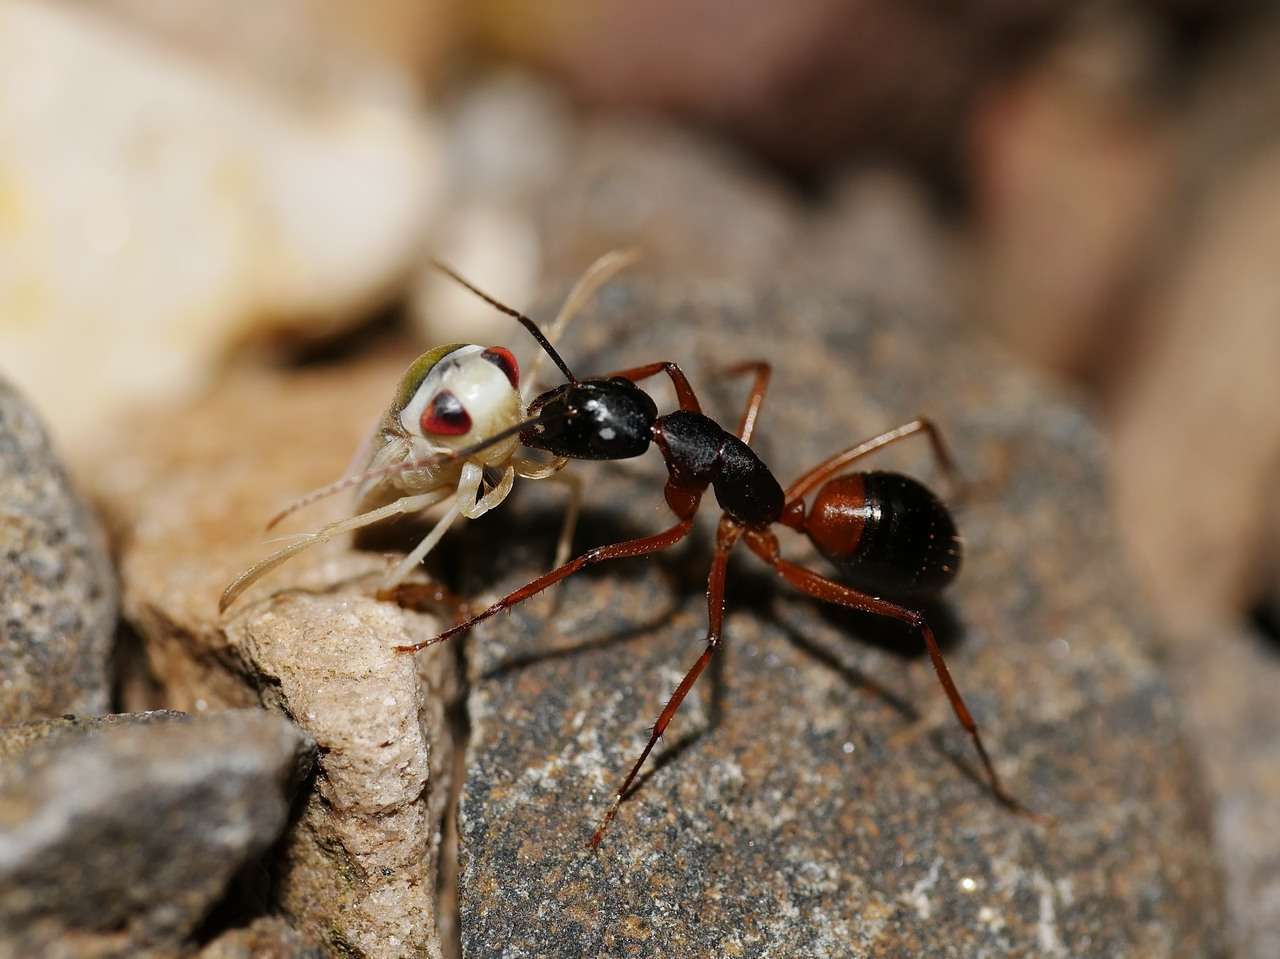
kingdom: Animalia
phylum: Arthropoda
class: Insecta
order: Hymenoptera
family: Formicidae
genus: Camponotus
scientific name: Camponotus consobrinus
